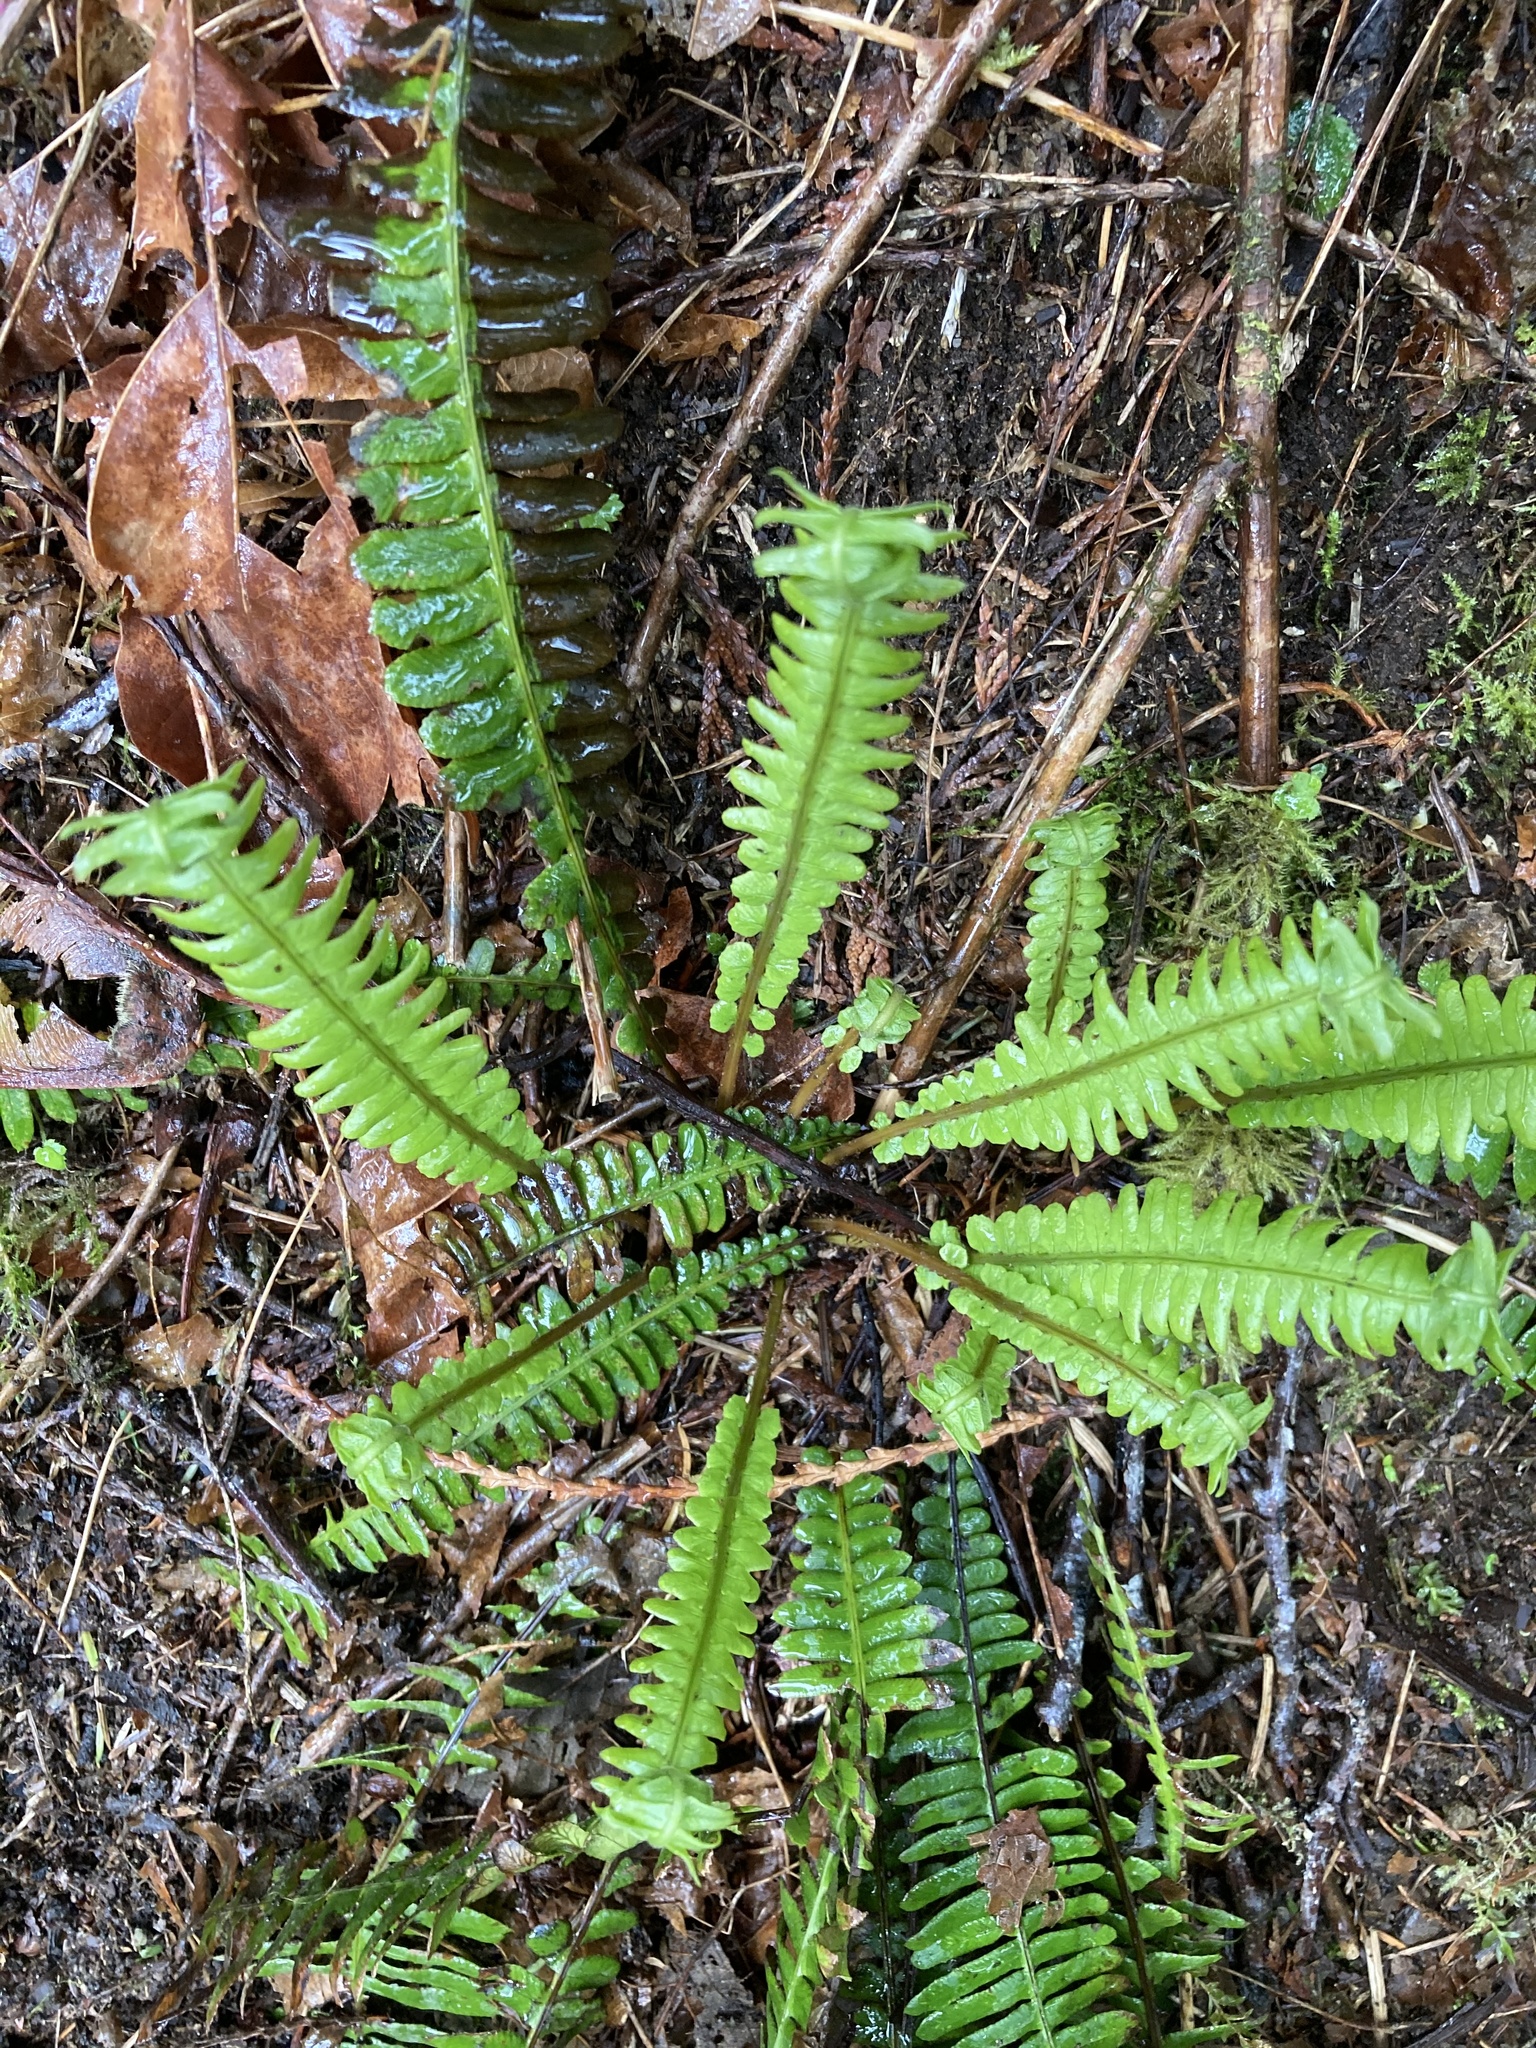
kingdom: Plantae
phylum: Tracheophyta
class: Polypodiopsida
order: Polypodiales
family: Blechnaceae
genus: Struthiopteris
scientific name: Struthiopteris spicant
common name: Deer fern
